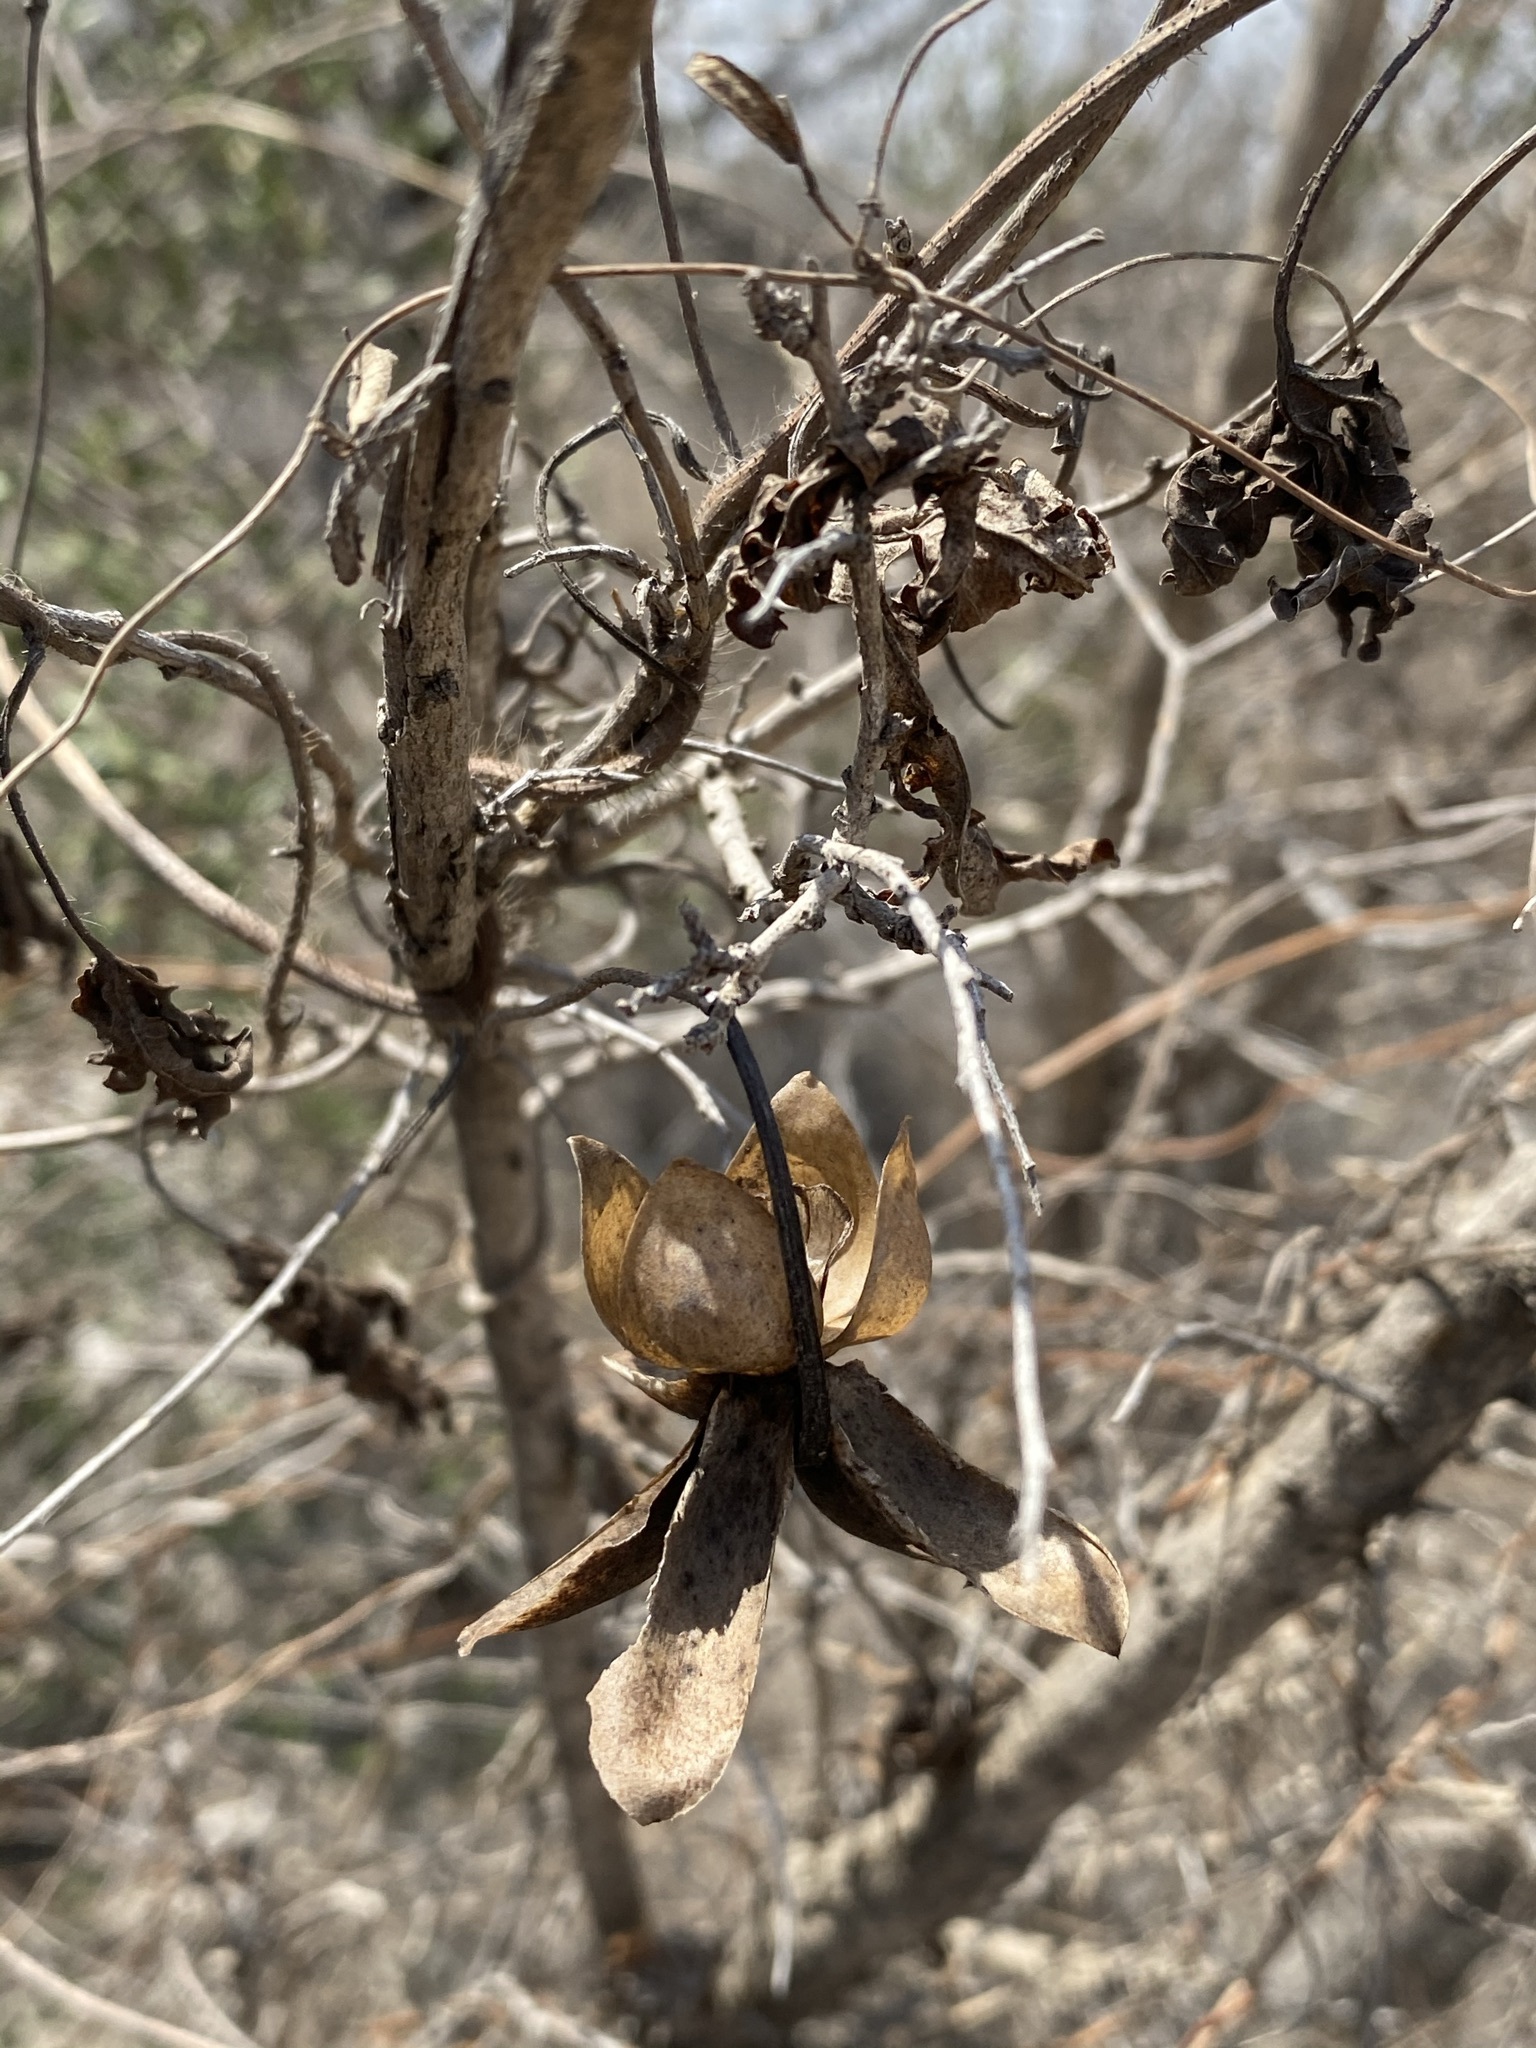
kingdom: Plantae
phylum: Tracheophyta
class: Magnoliopsida
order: Solanales
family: Convolvulaceae
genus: Distimake
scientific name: Distimake dissectus
